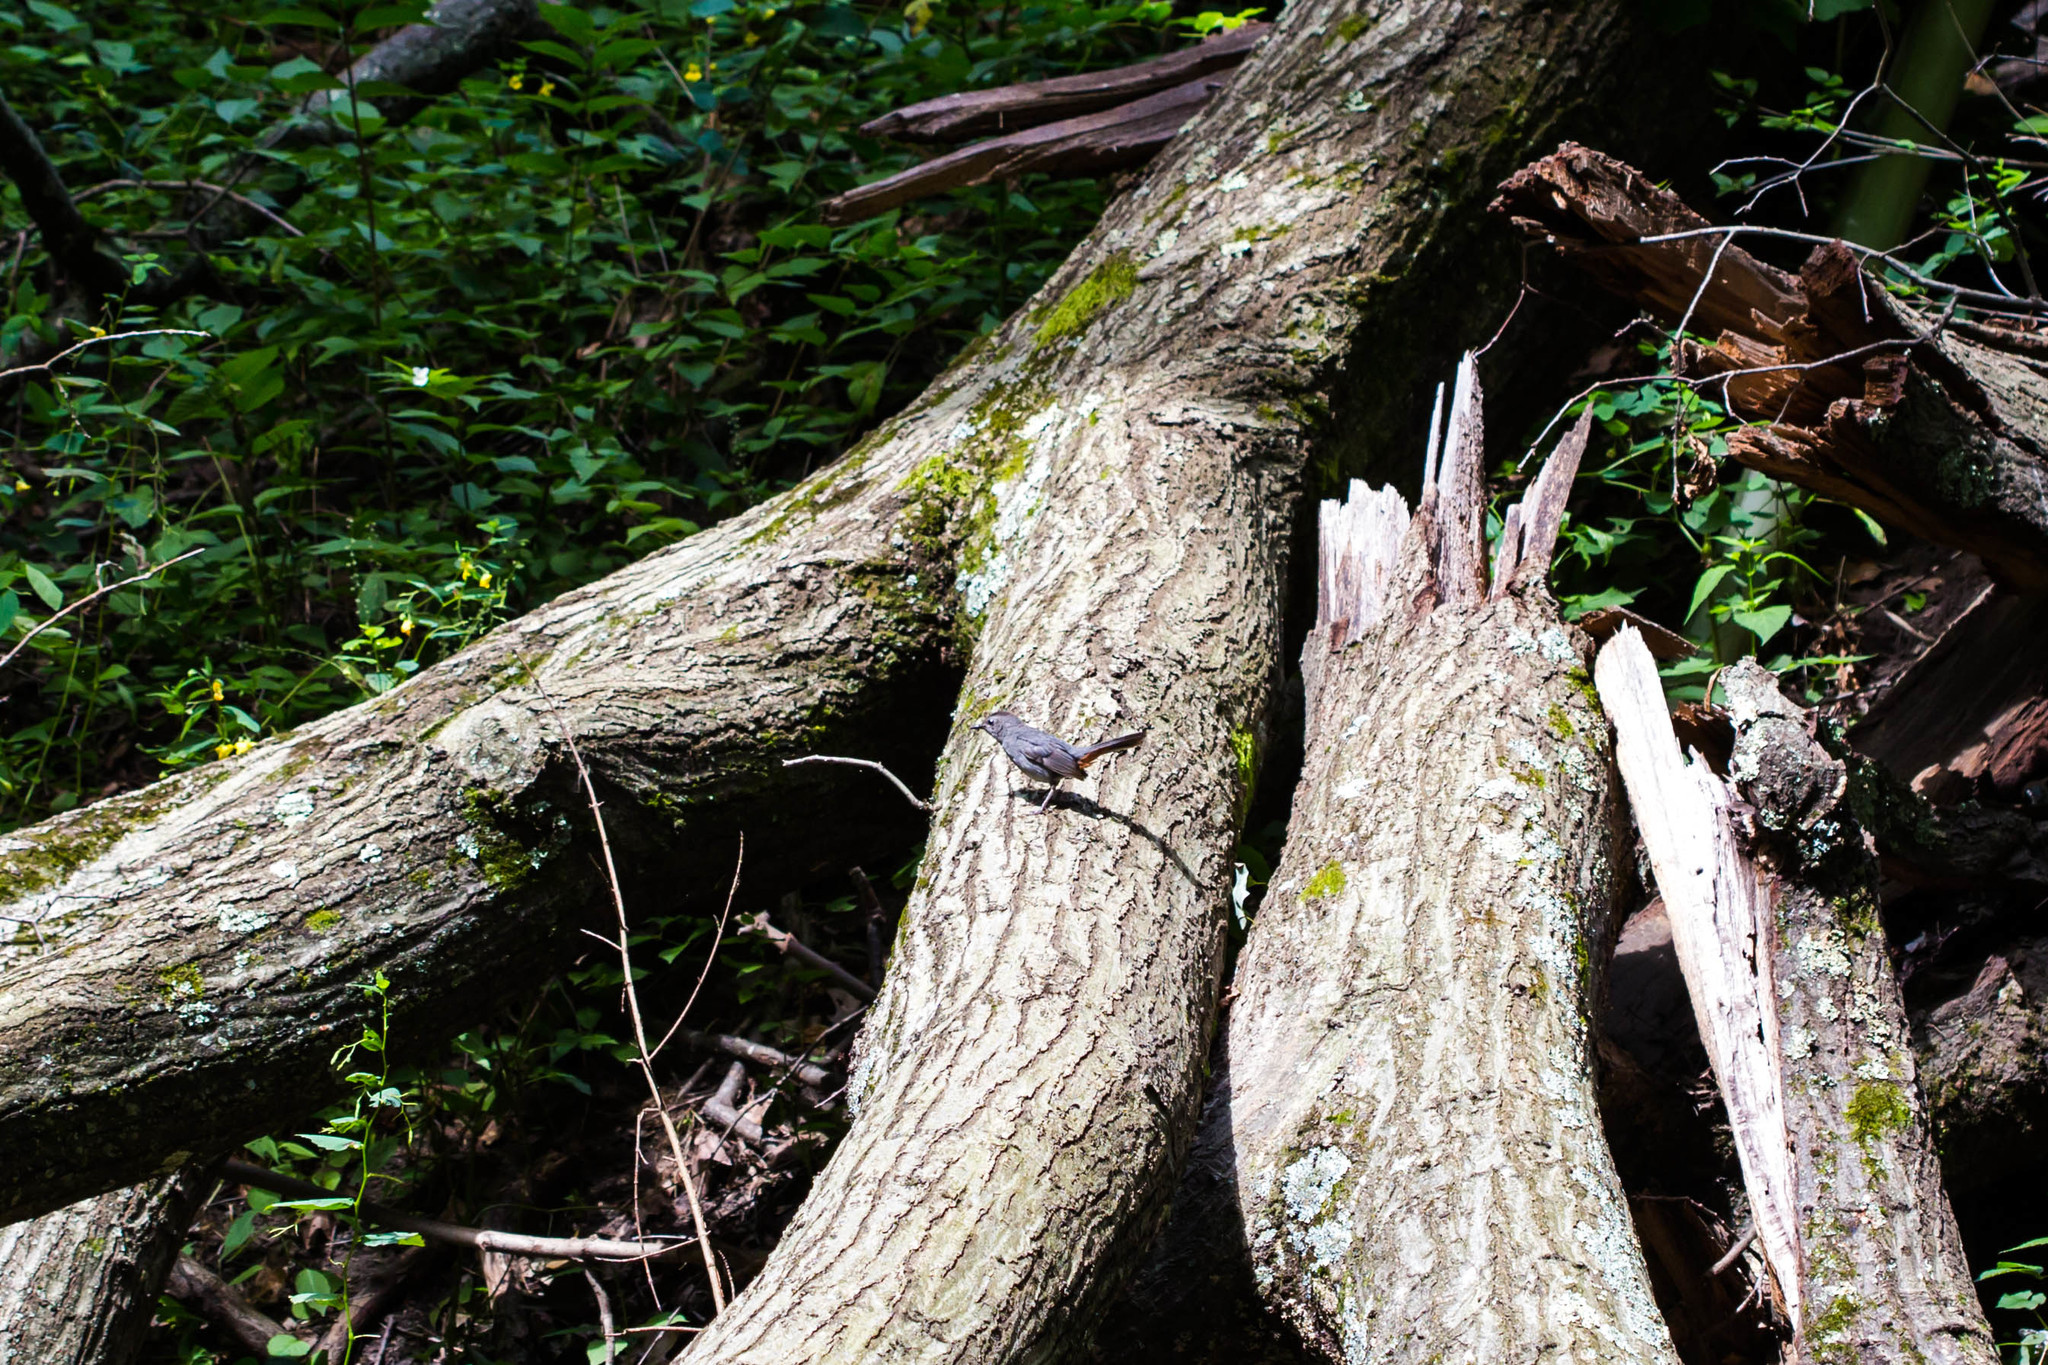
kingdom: Animalia
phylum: Chordata
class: Aves
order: Passeriformes
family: Mimidae
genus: Dumetella
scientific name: Dumetella carolinensis
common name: Gray catbird
